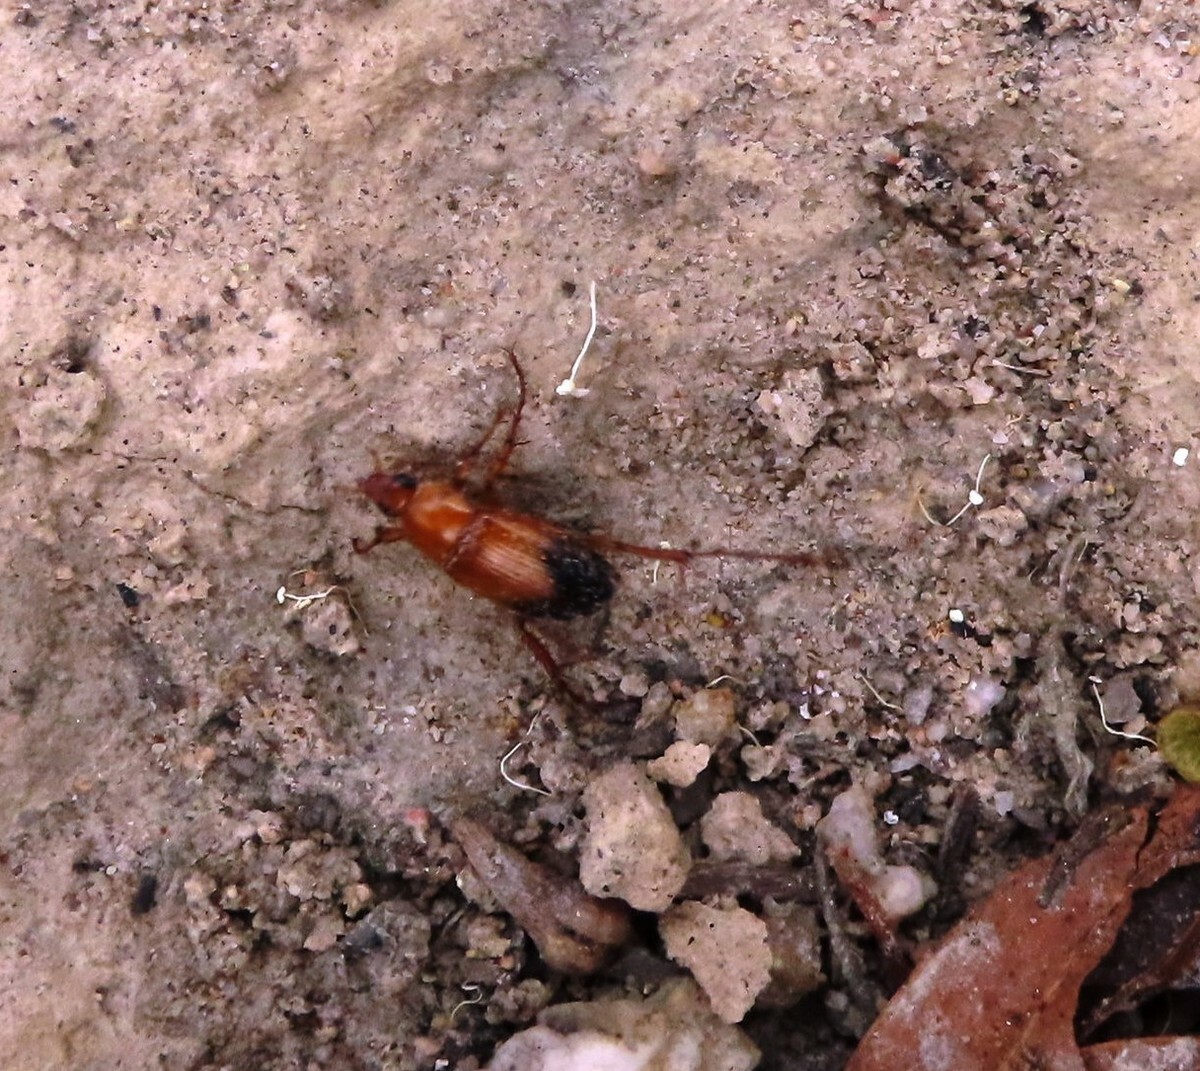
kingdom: Animalia
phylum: Arthropoda
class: Insecta
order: Coleoptera
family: Scarabaeidae
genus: Phyllotocus
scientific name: Phyllotocus macleayi
